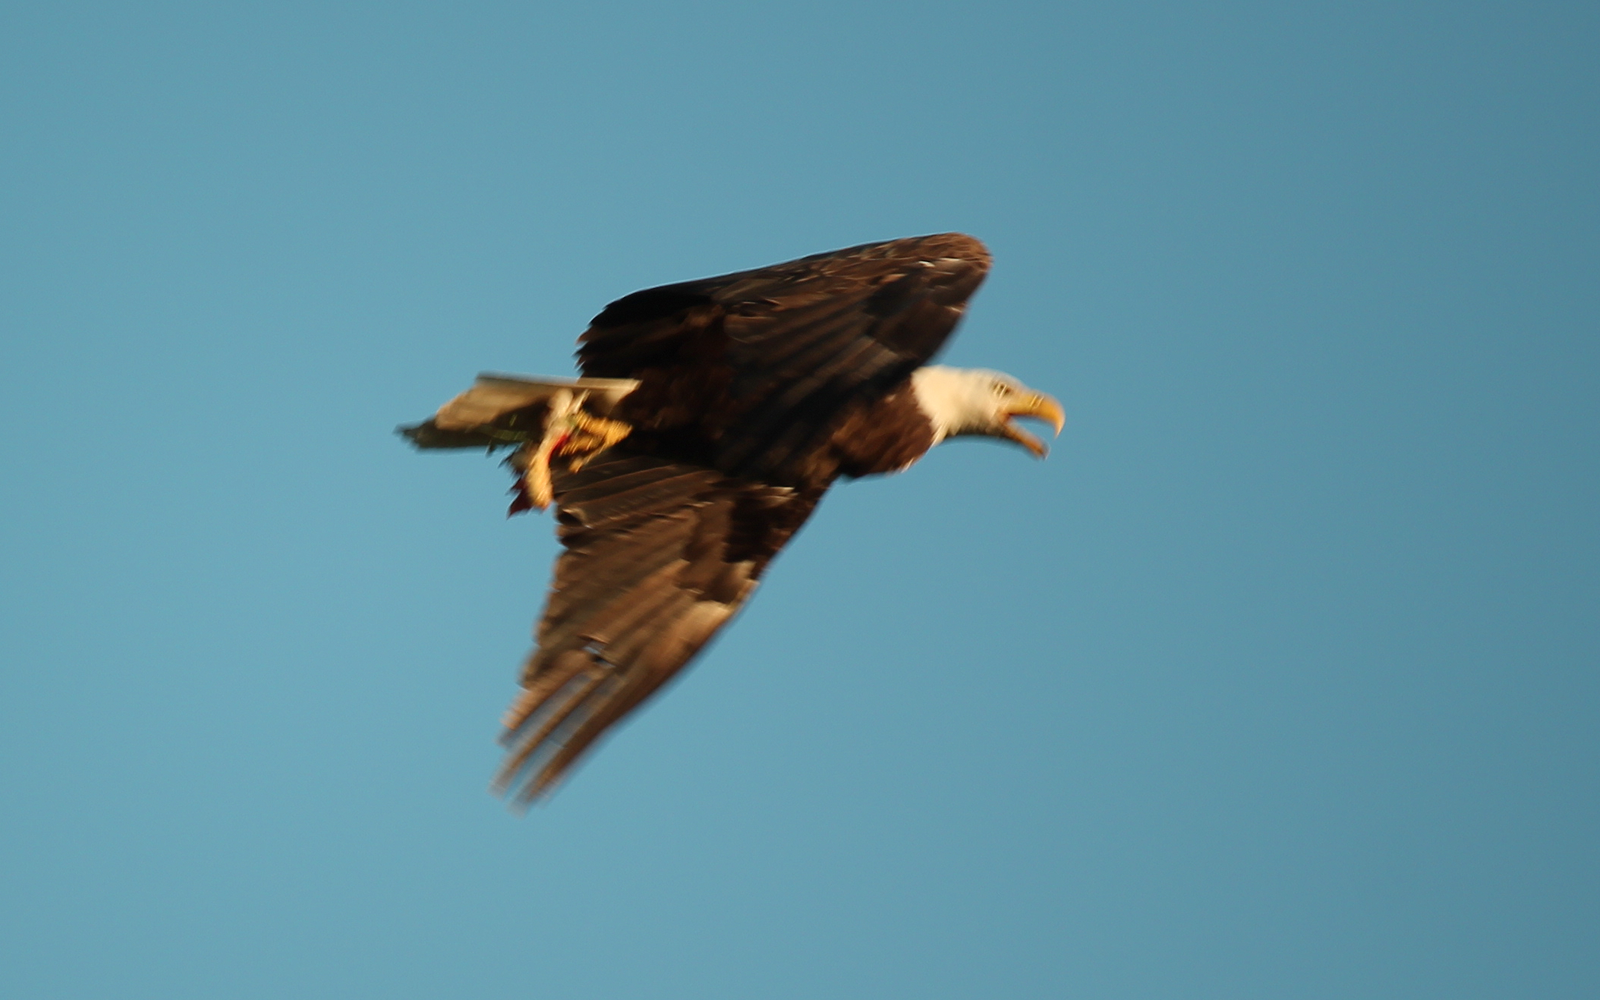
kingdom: Animalia
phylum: Chordata
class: Aves
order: Accipitriformes
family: Accipitridae
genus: Haliaeetus
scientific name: Haliaeetus leucocephalus
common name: Bald eagle
